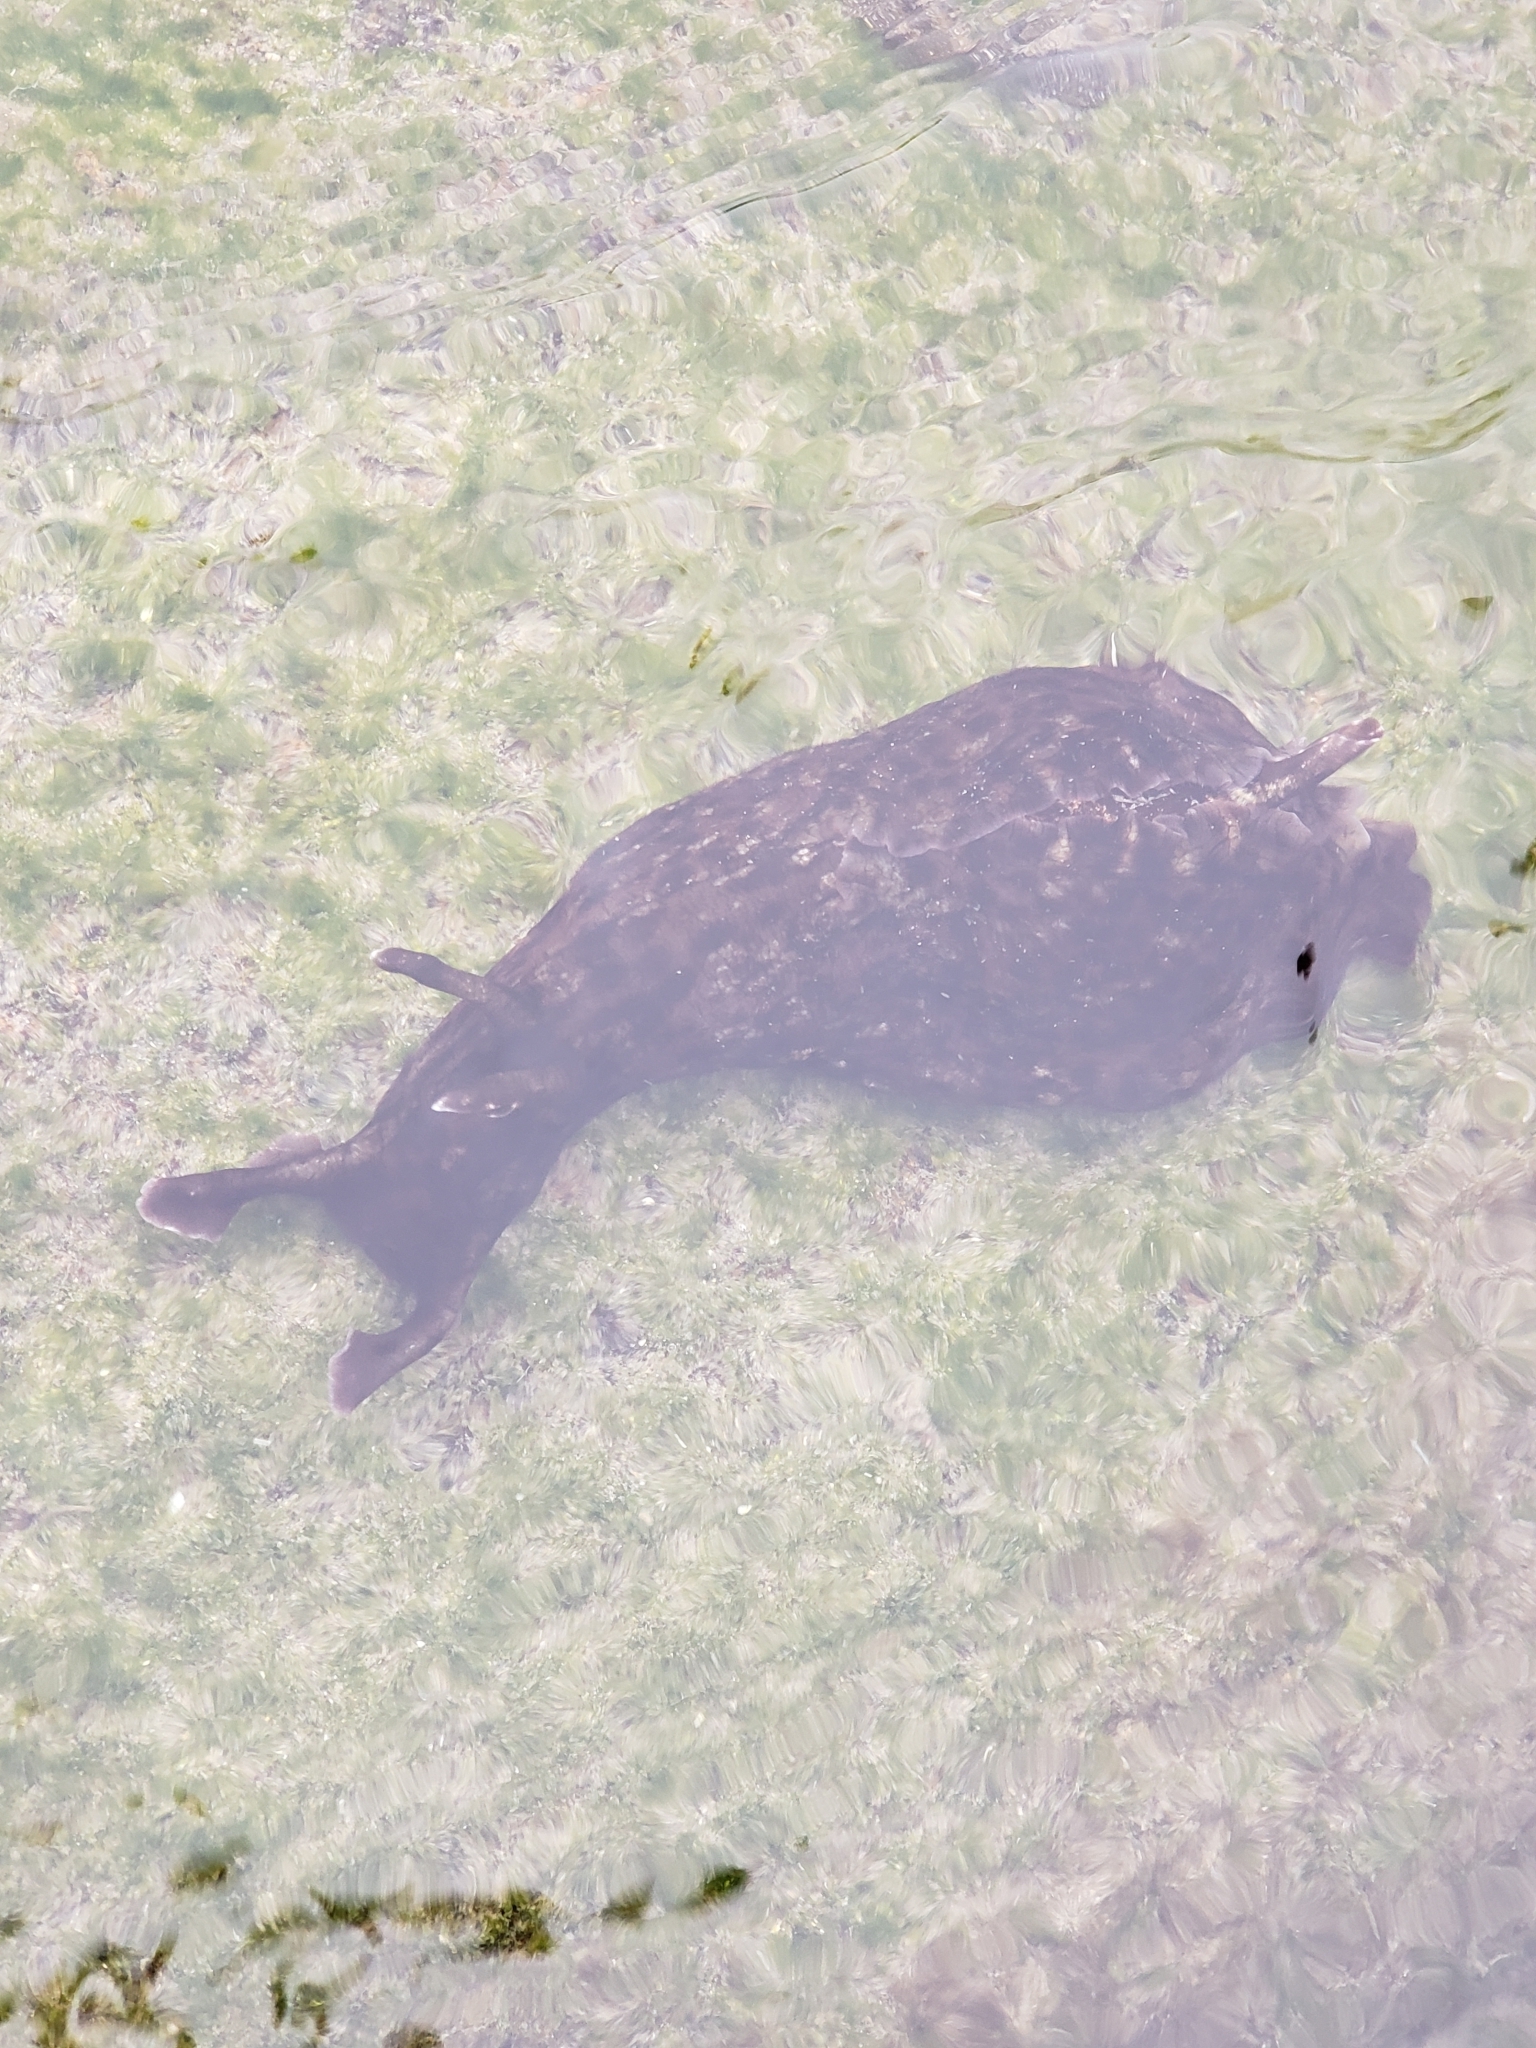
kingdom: Animalia
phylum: Mollusca
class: Gastropoda
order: Aplysiida
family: Aplysiidae
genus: Aplysia
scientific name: Aplysia californica
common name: California seahare
